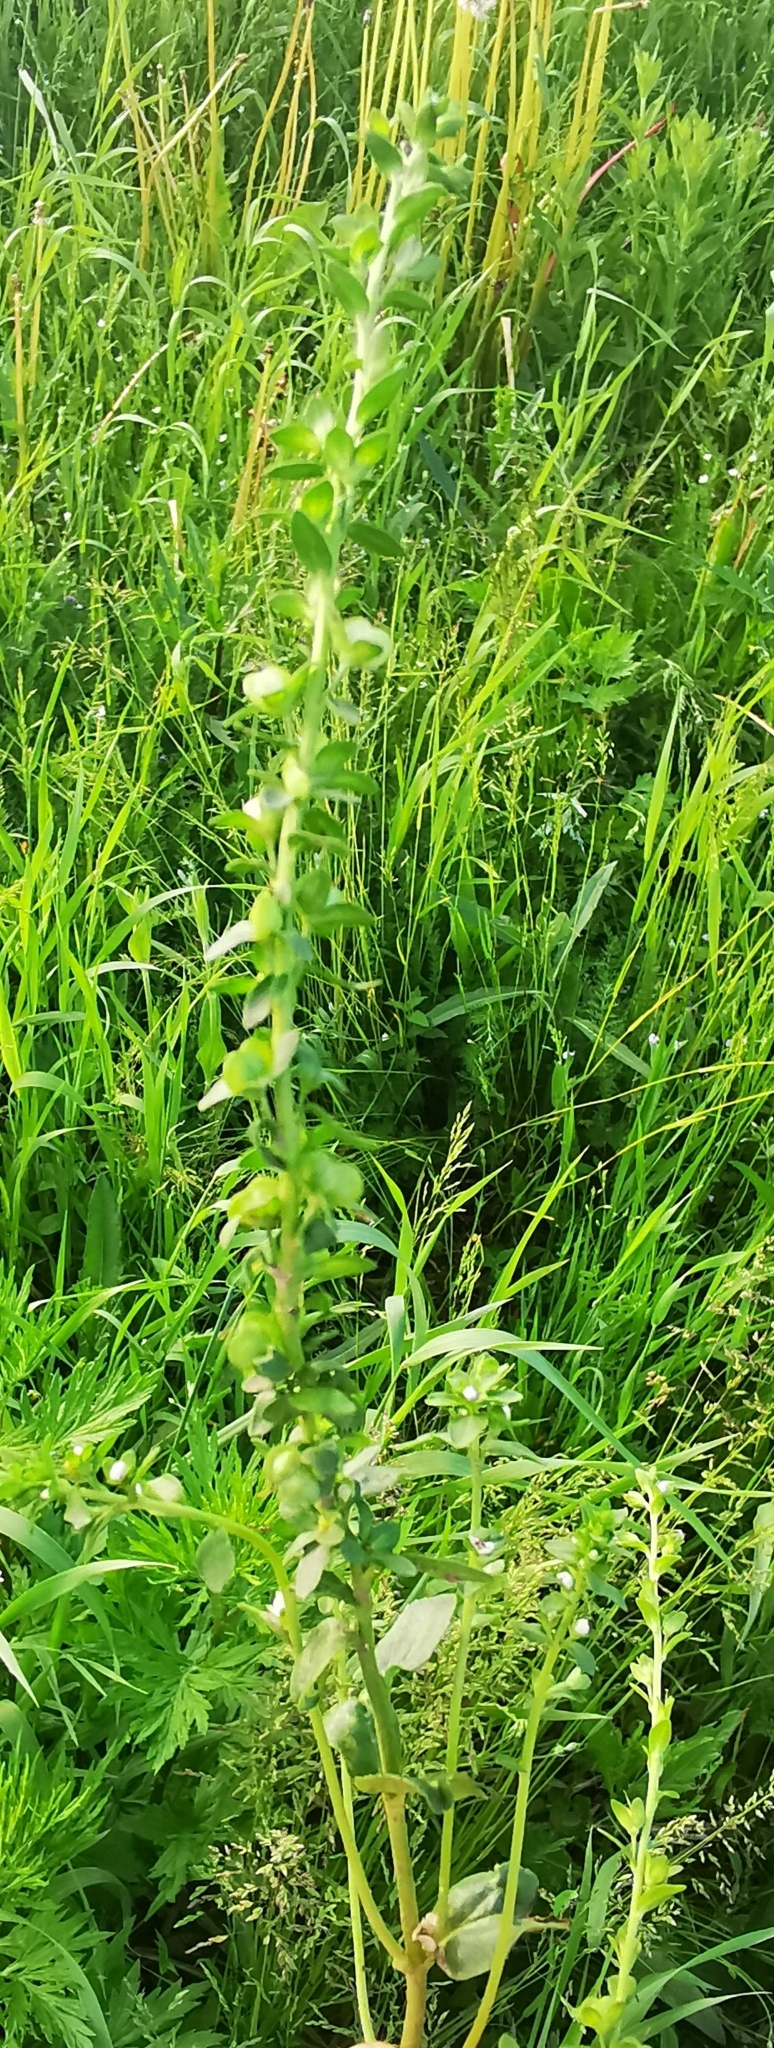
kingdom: Plantae
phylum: Tracheophyta
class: Magnoliopsida
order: Lamiales
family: Plantaginaceae
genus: Veronica
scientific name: Veronica serpyllifolia
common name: Thyme-leaved speedwell
